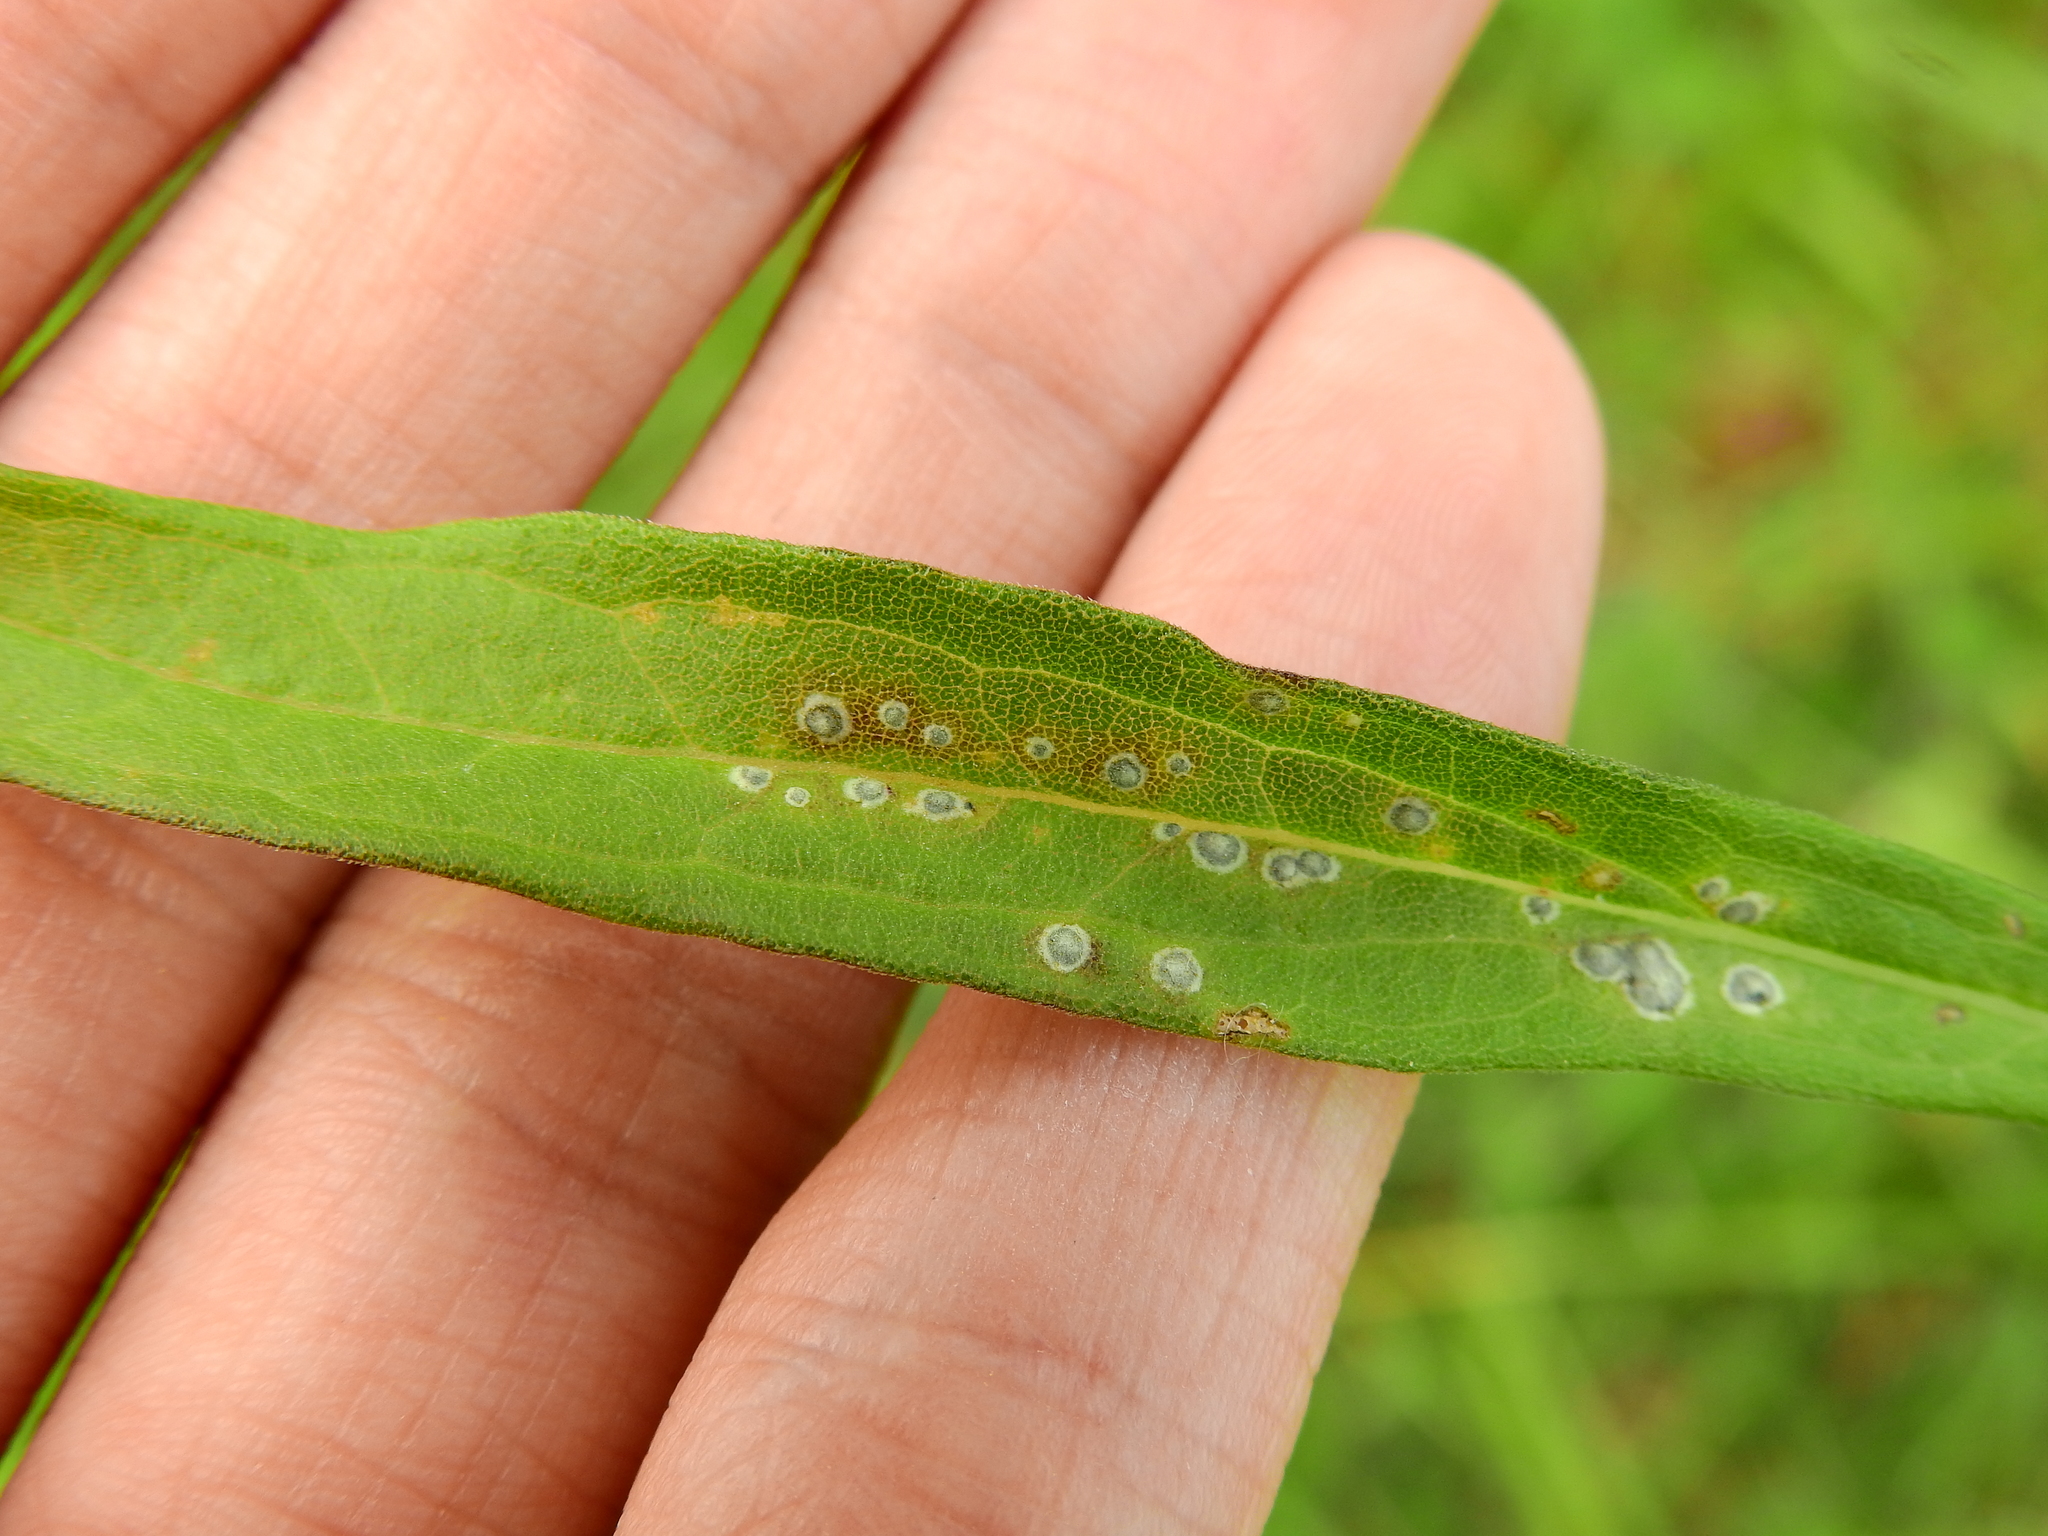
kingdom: Animalia
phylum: Arthropoda
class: Insecta
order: Diptera
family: Cecidomyiidae
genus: Asteromyia
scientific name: Asteromyia carbonifera
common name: Carbonifera goldenrod gall midge
